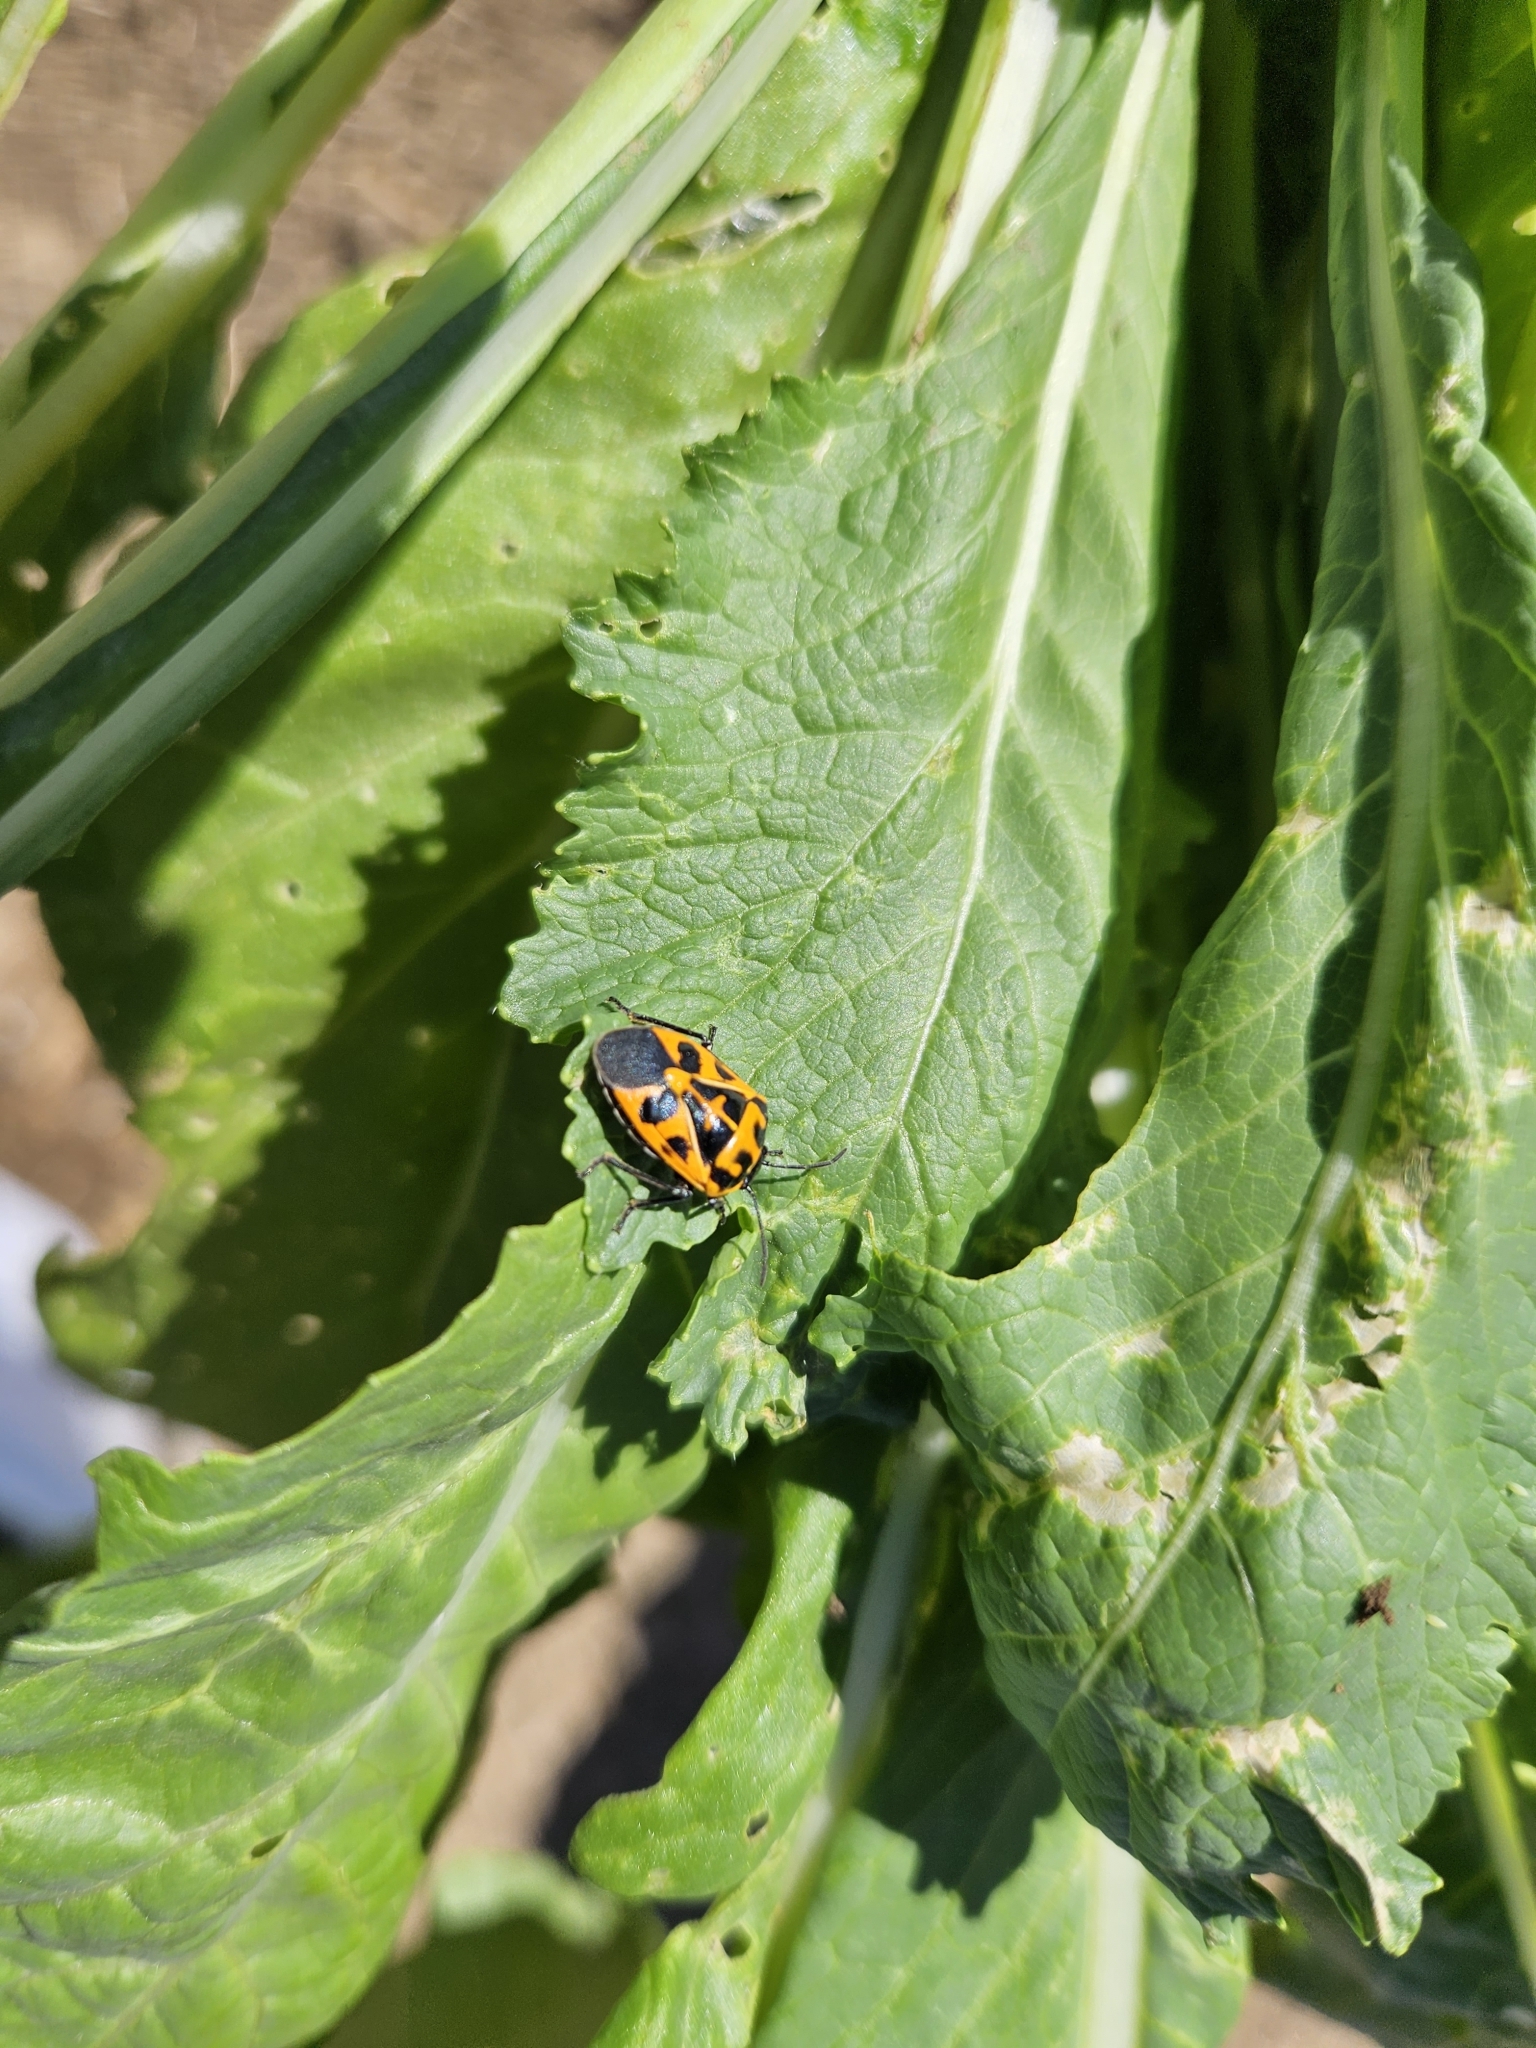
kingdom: Animalia
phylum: Arthropoda
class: Insecta
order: Hemiptera
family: Pentatomidae
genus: Murgantia
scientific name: Murgantia histrionica
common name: Harlequin bug
